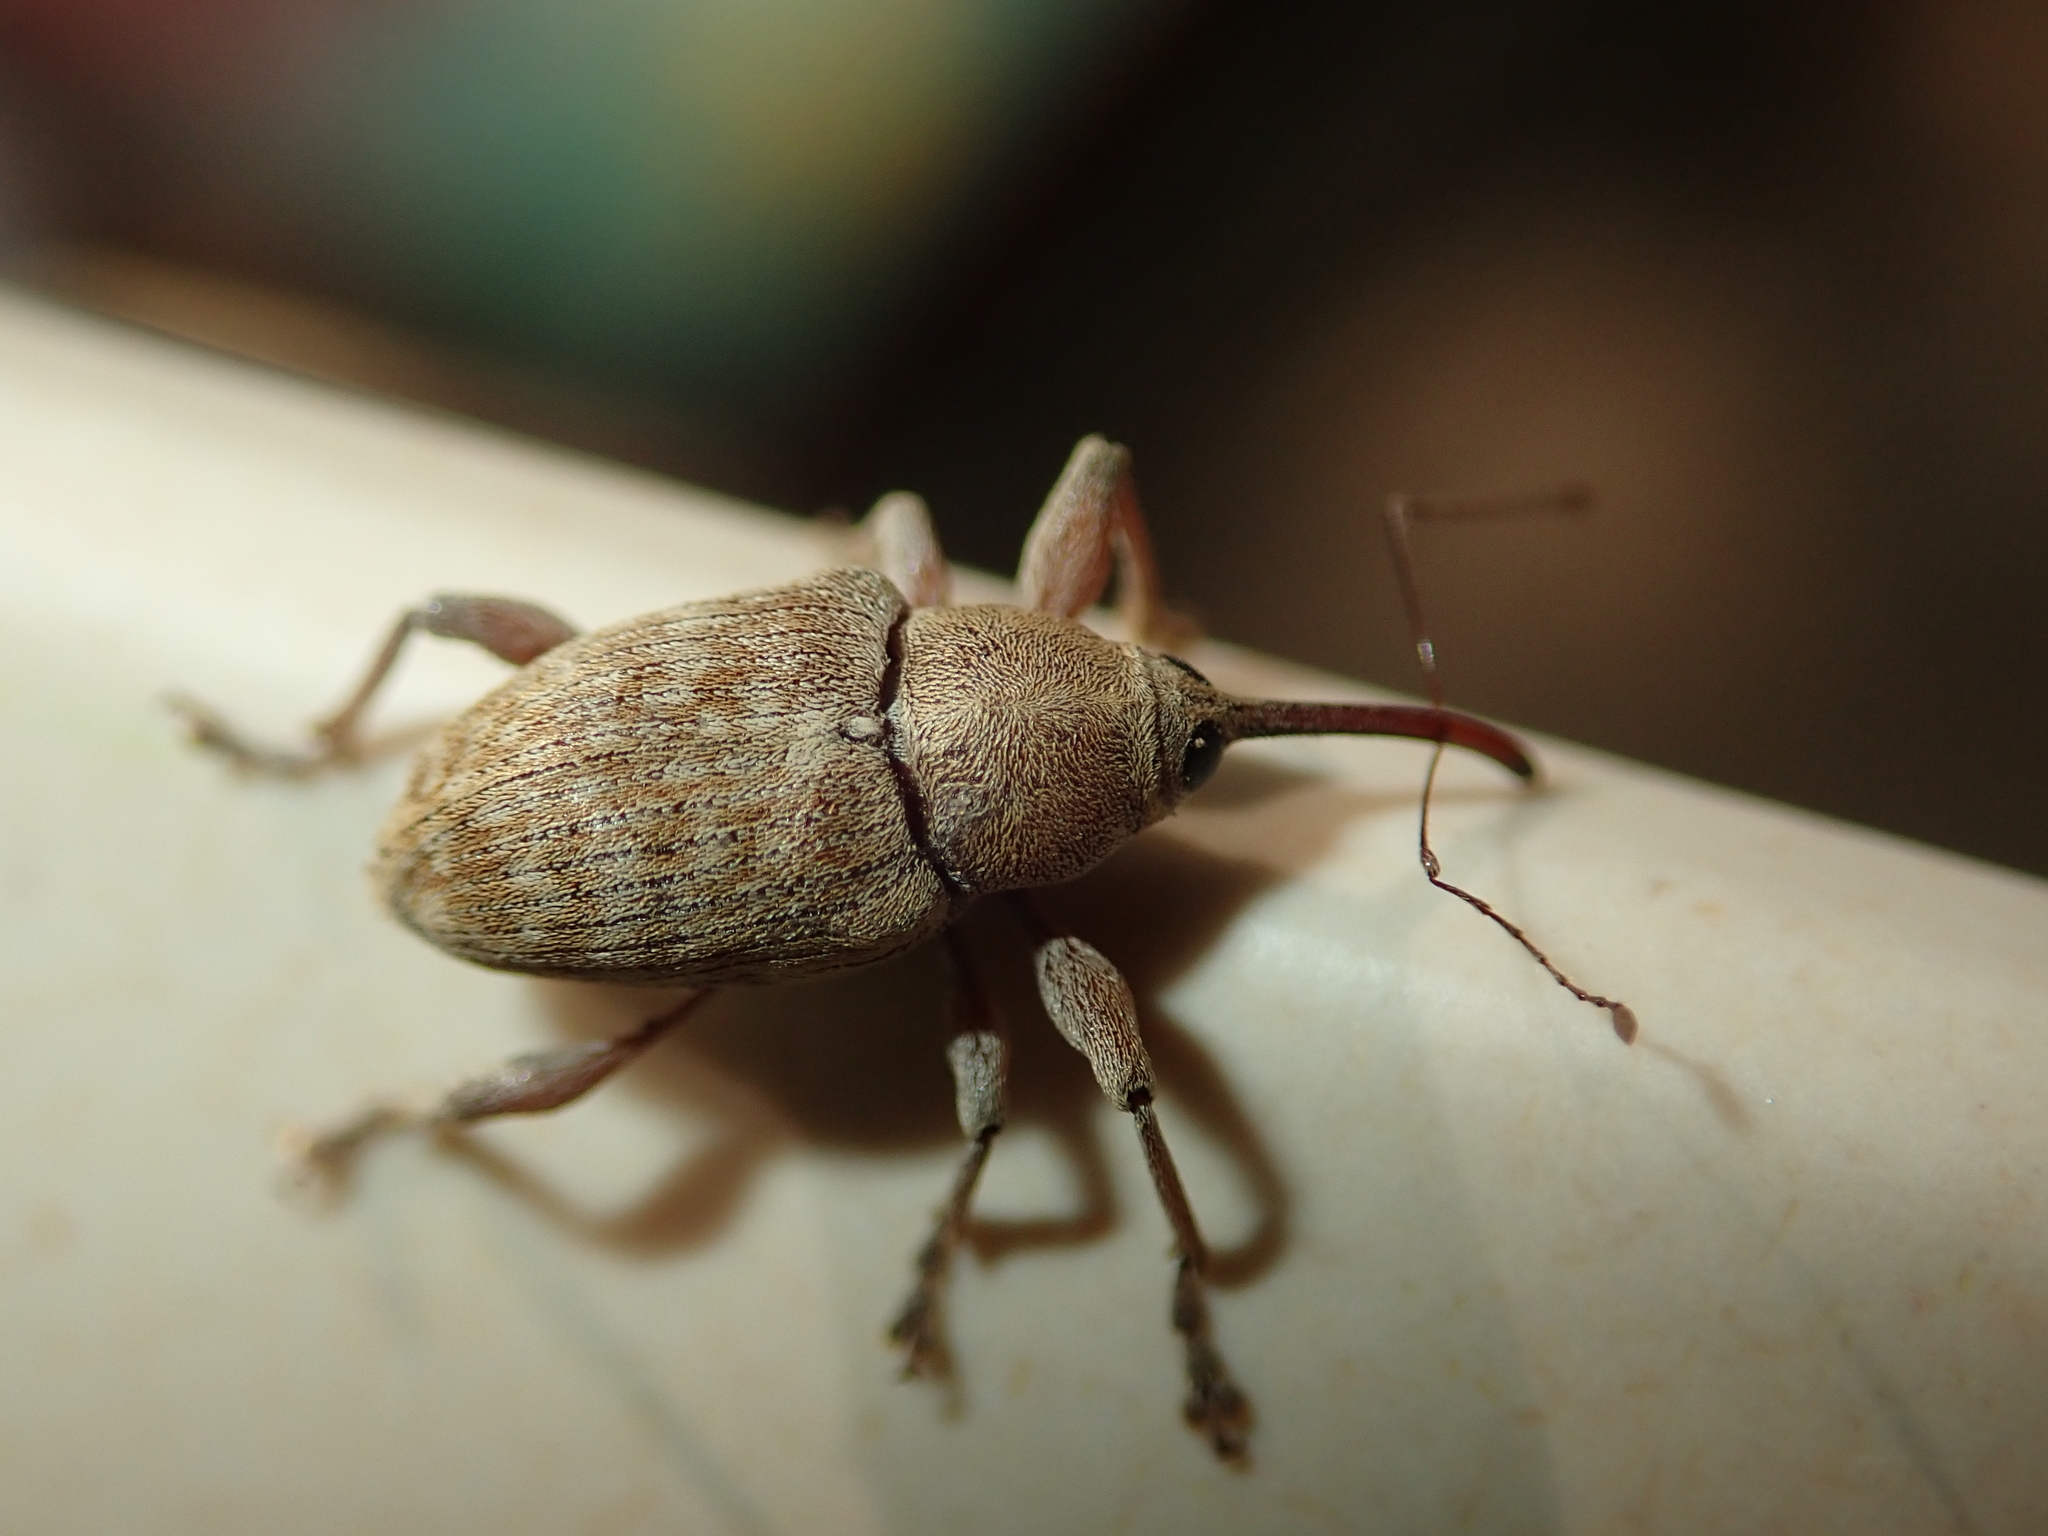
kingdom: Animalia
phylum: Arthropoda
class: Insecta
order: Coleoptera
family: Curculionidae
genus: Curculio
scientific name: Curculio elephas
